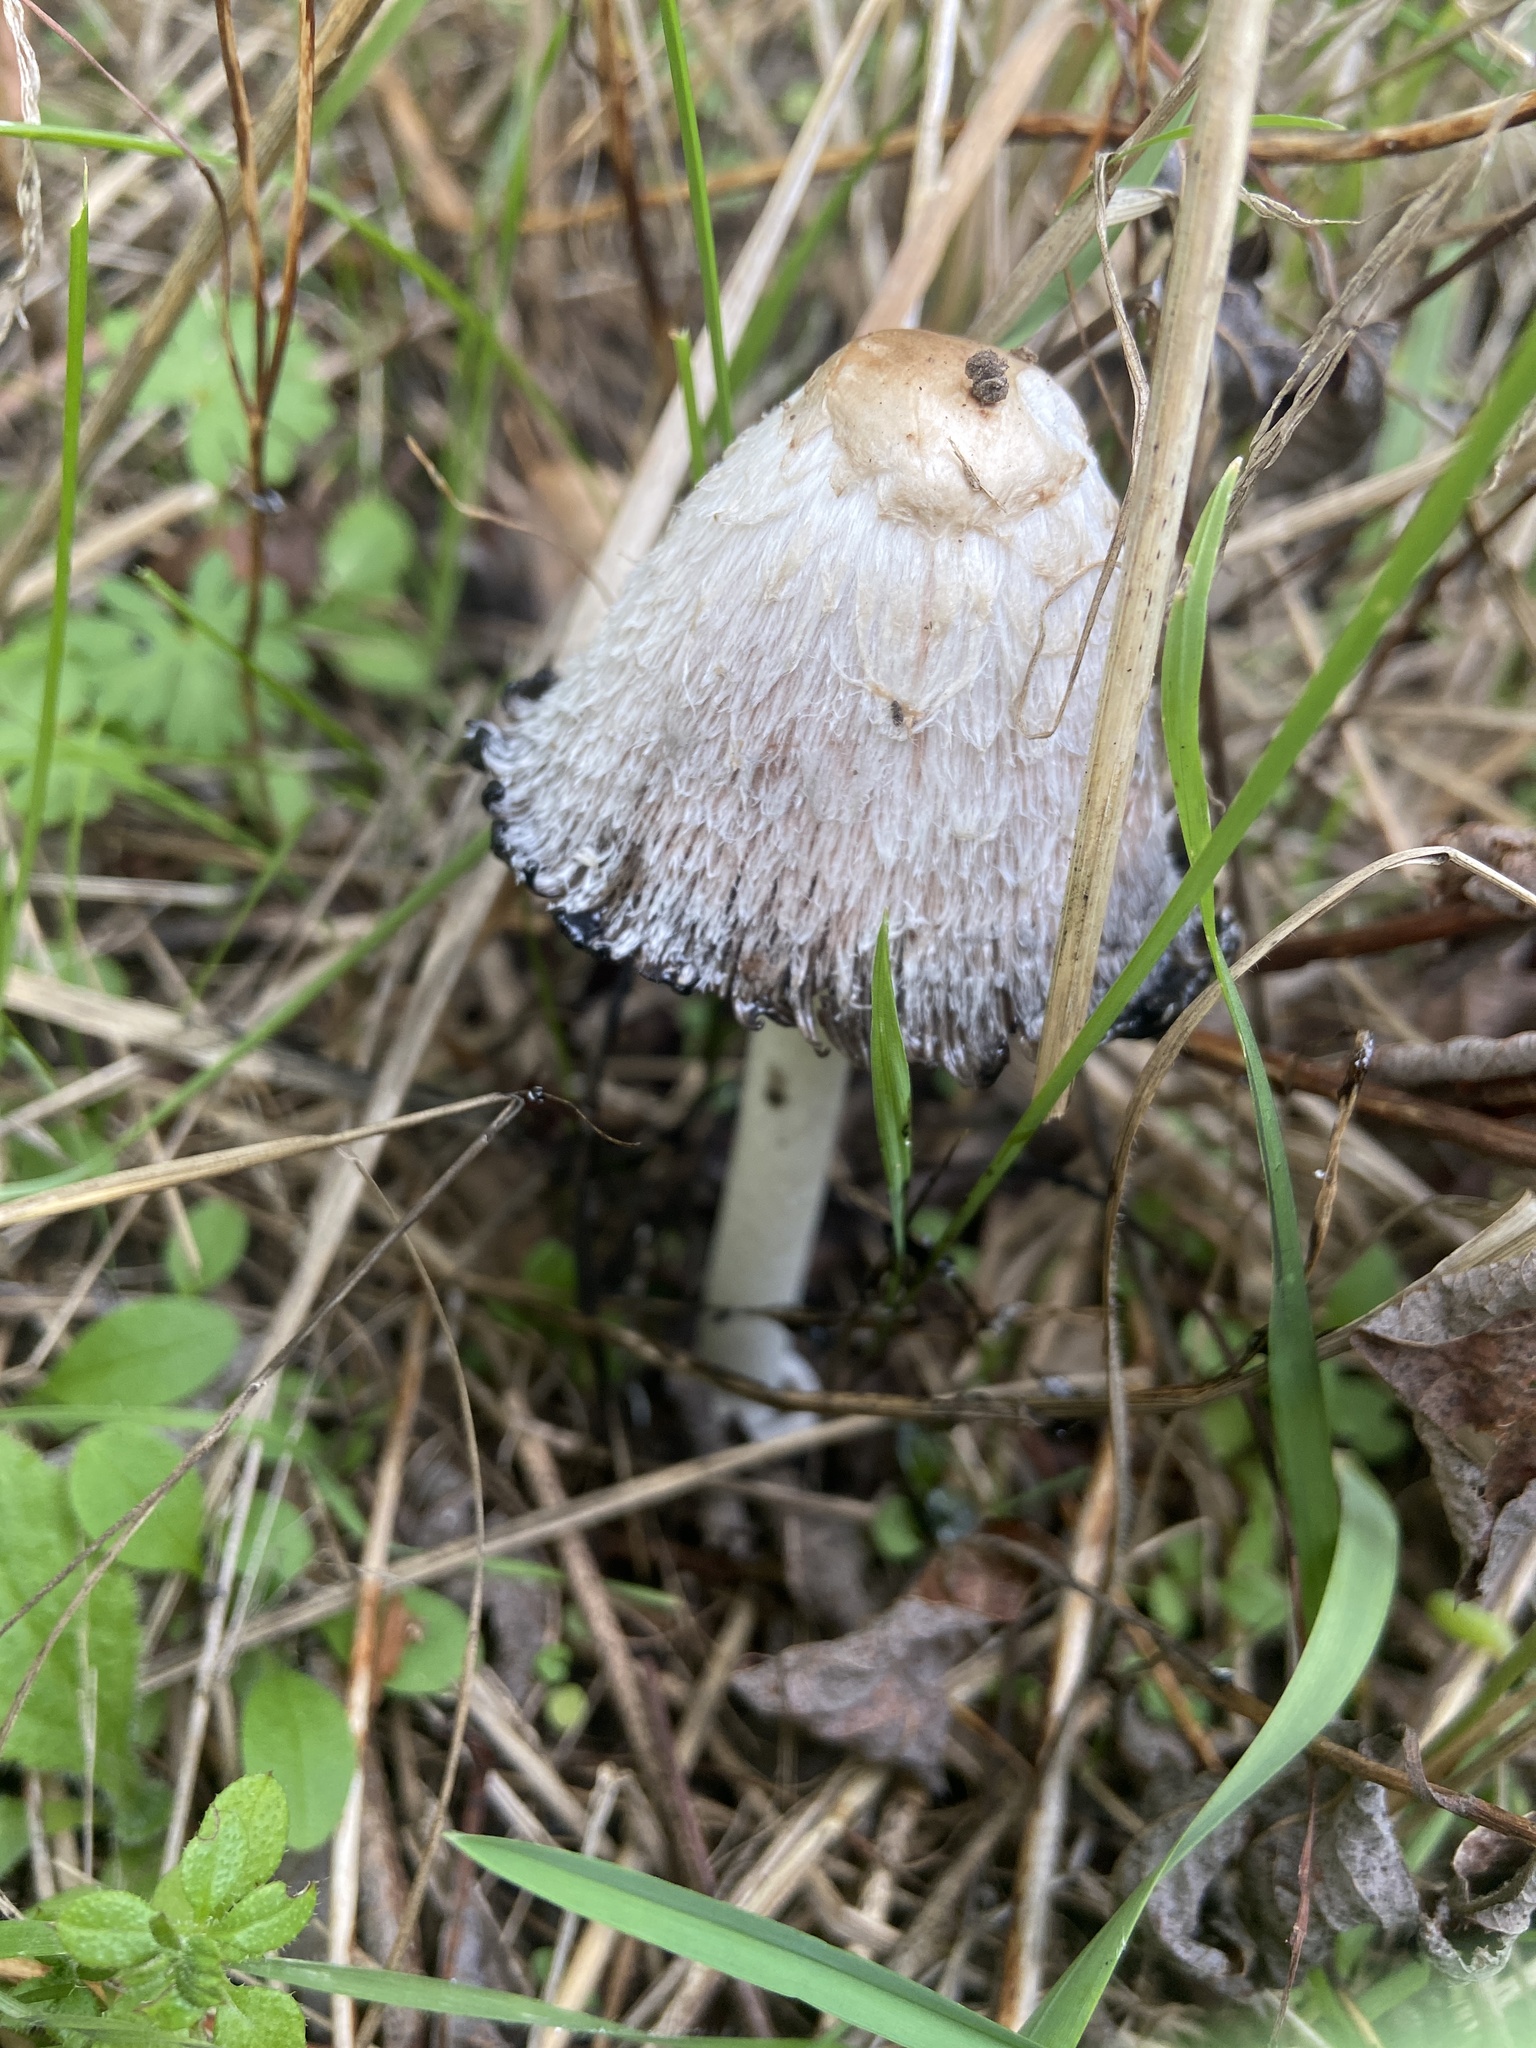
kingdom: Fungi
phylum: Basidiomycota
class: Agaricomycetes
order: Agaricales
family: Agaricaceae
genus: Coprinus
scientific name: Coprinus comatus
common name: Lawyer's wig
